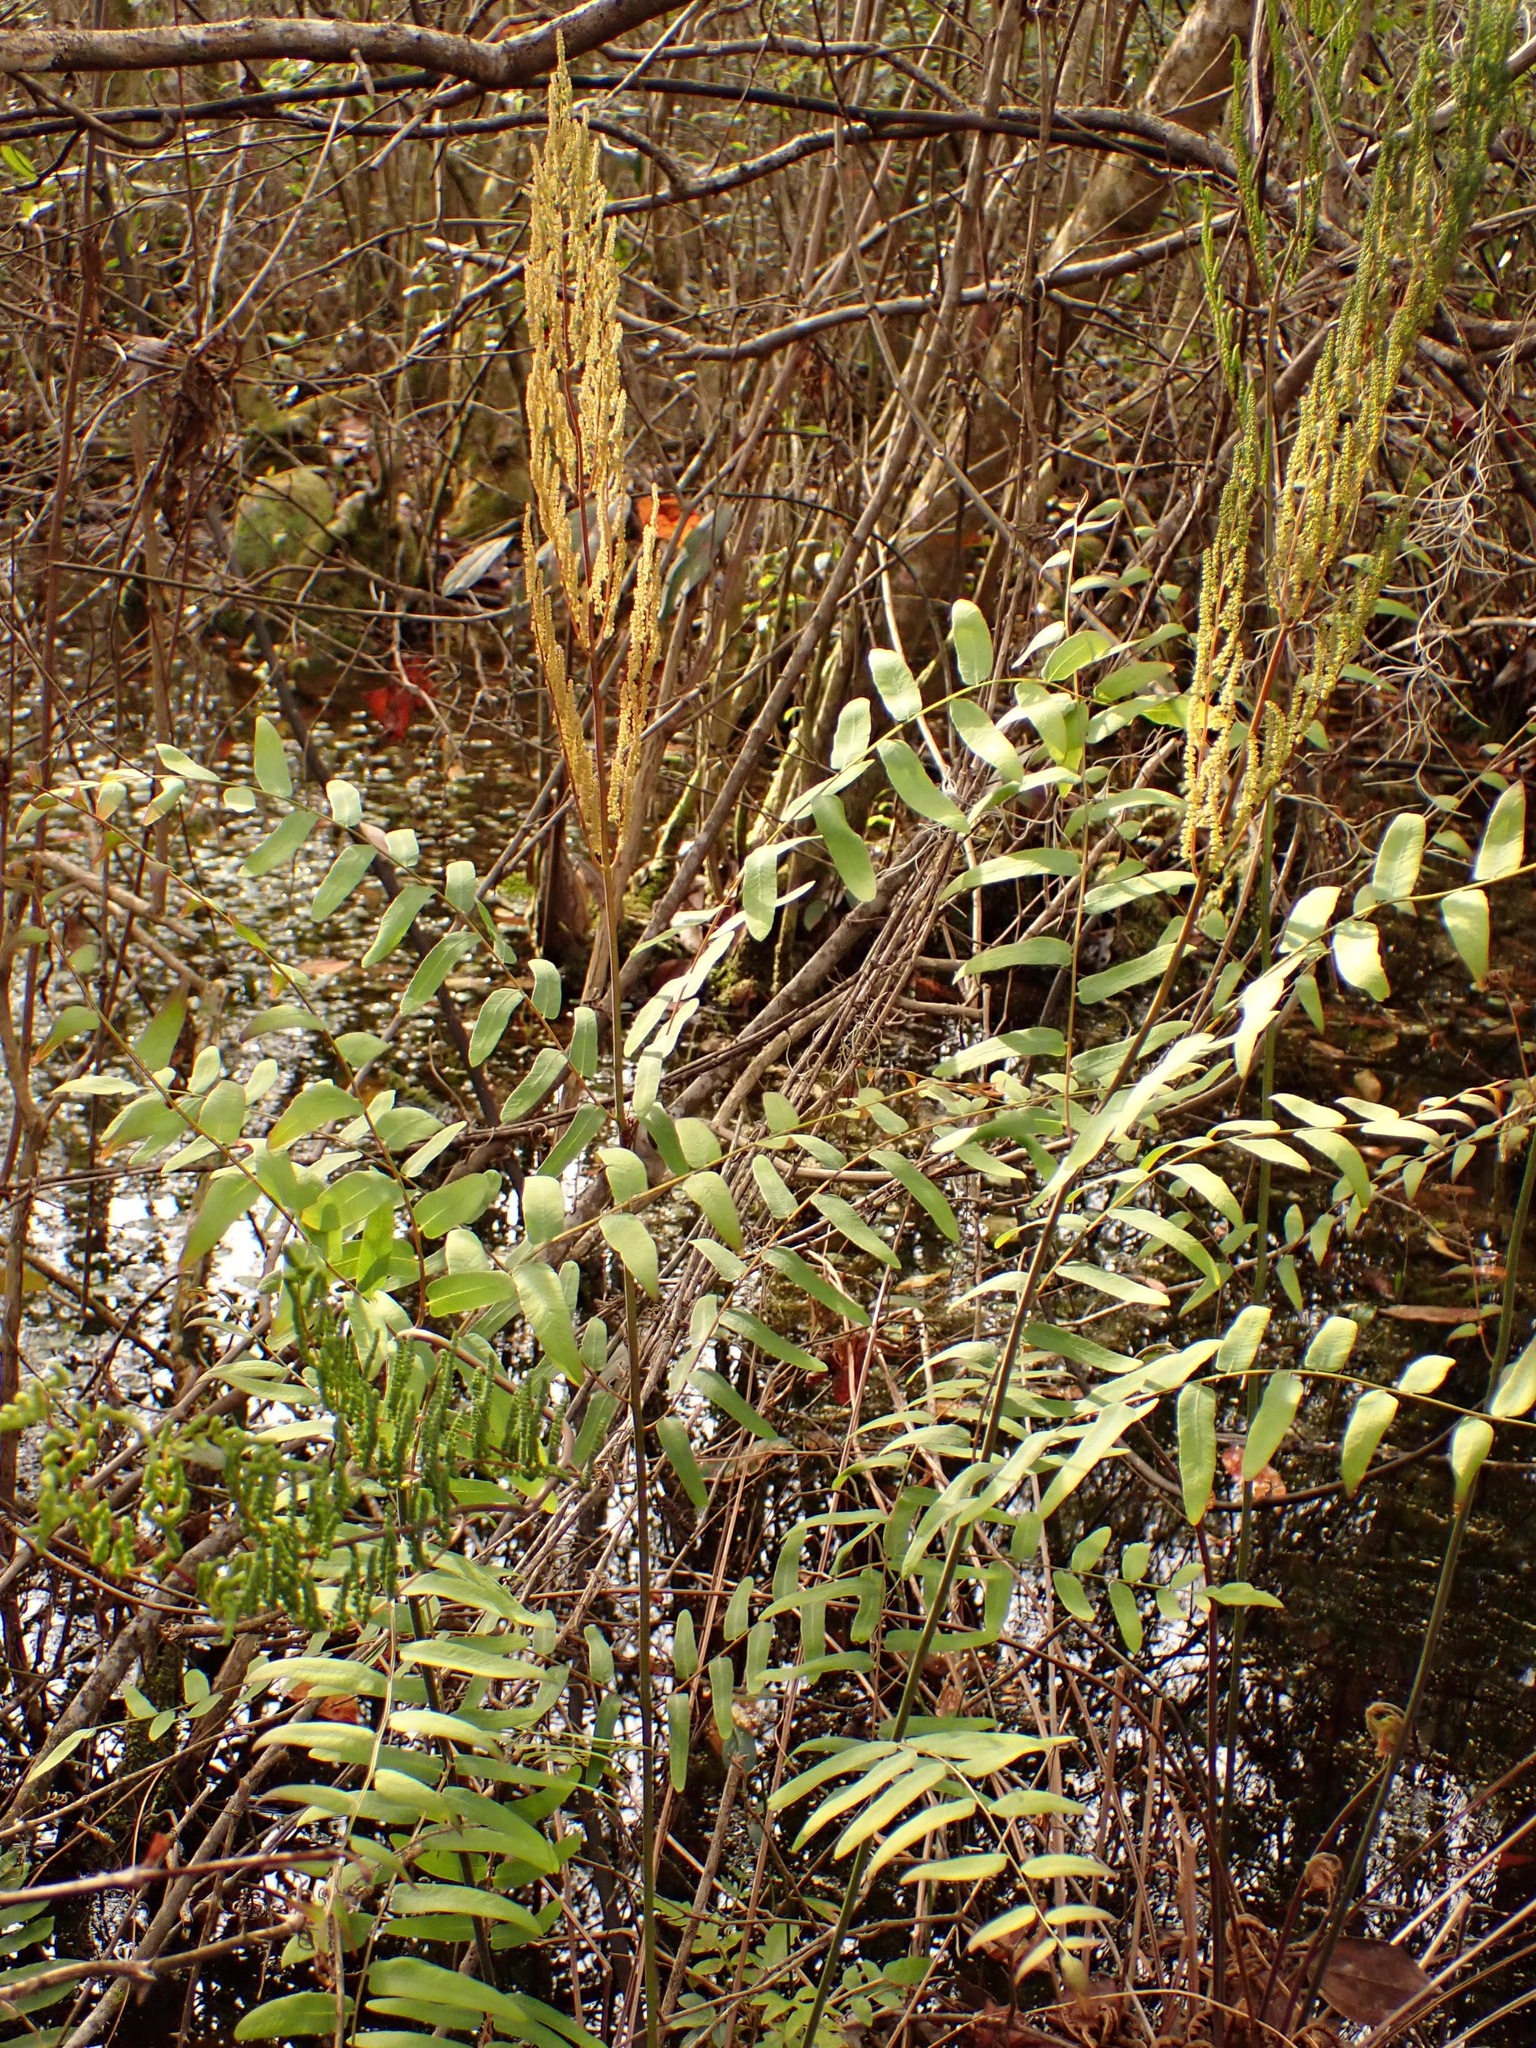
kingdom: Plantae
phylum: Tracheophyta
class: Polypodiopsida
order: Osmundales
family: Osmundaceae
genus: Osmunda
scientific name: Osmunda spectabilis
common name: American royal fern
